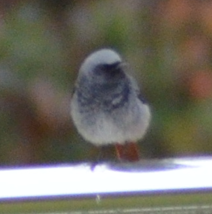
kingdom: Animalia
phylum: Chordata
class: Aves
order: Passeriformes
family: Muscicapidae
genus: Phoenicurus
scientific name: Phoenicurus ochruros
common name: Black redstart
